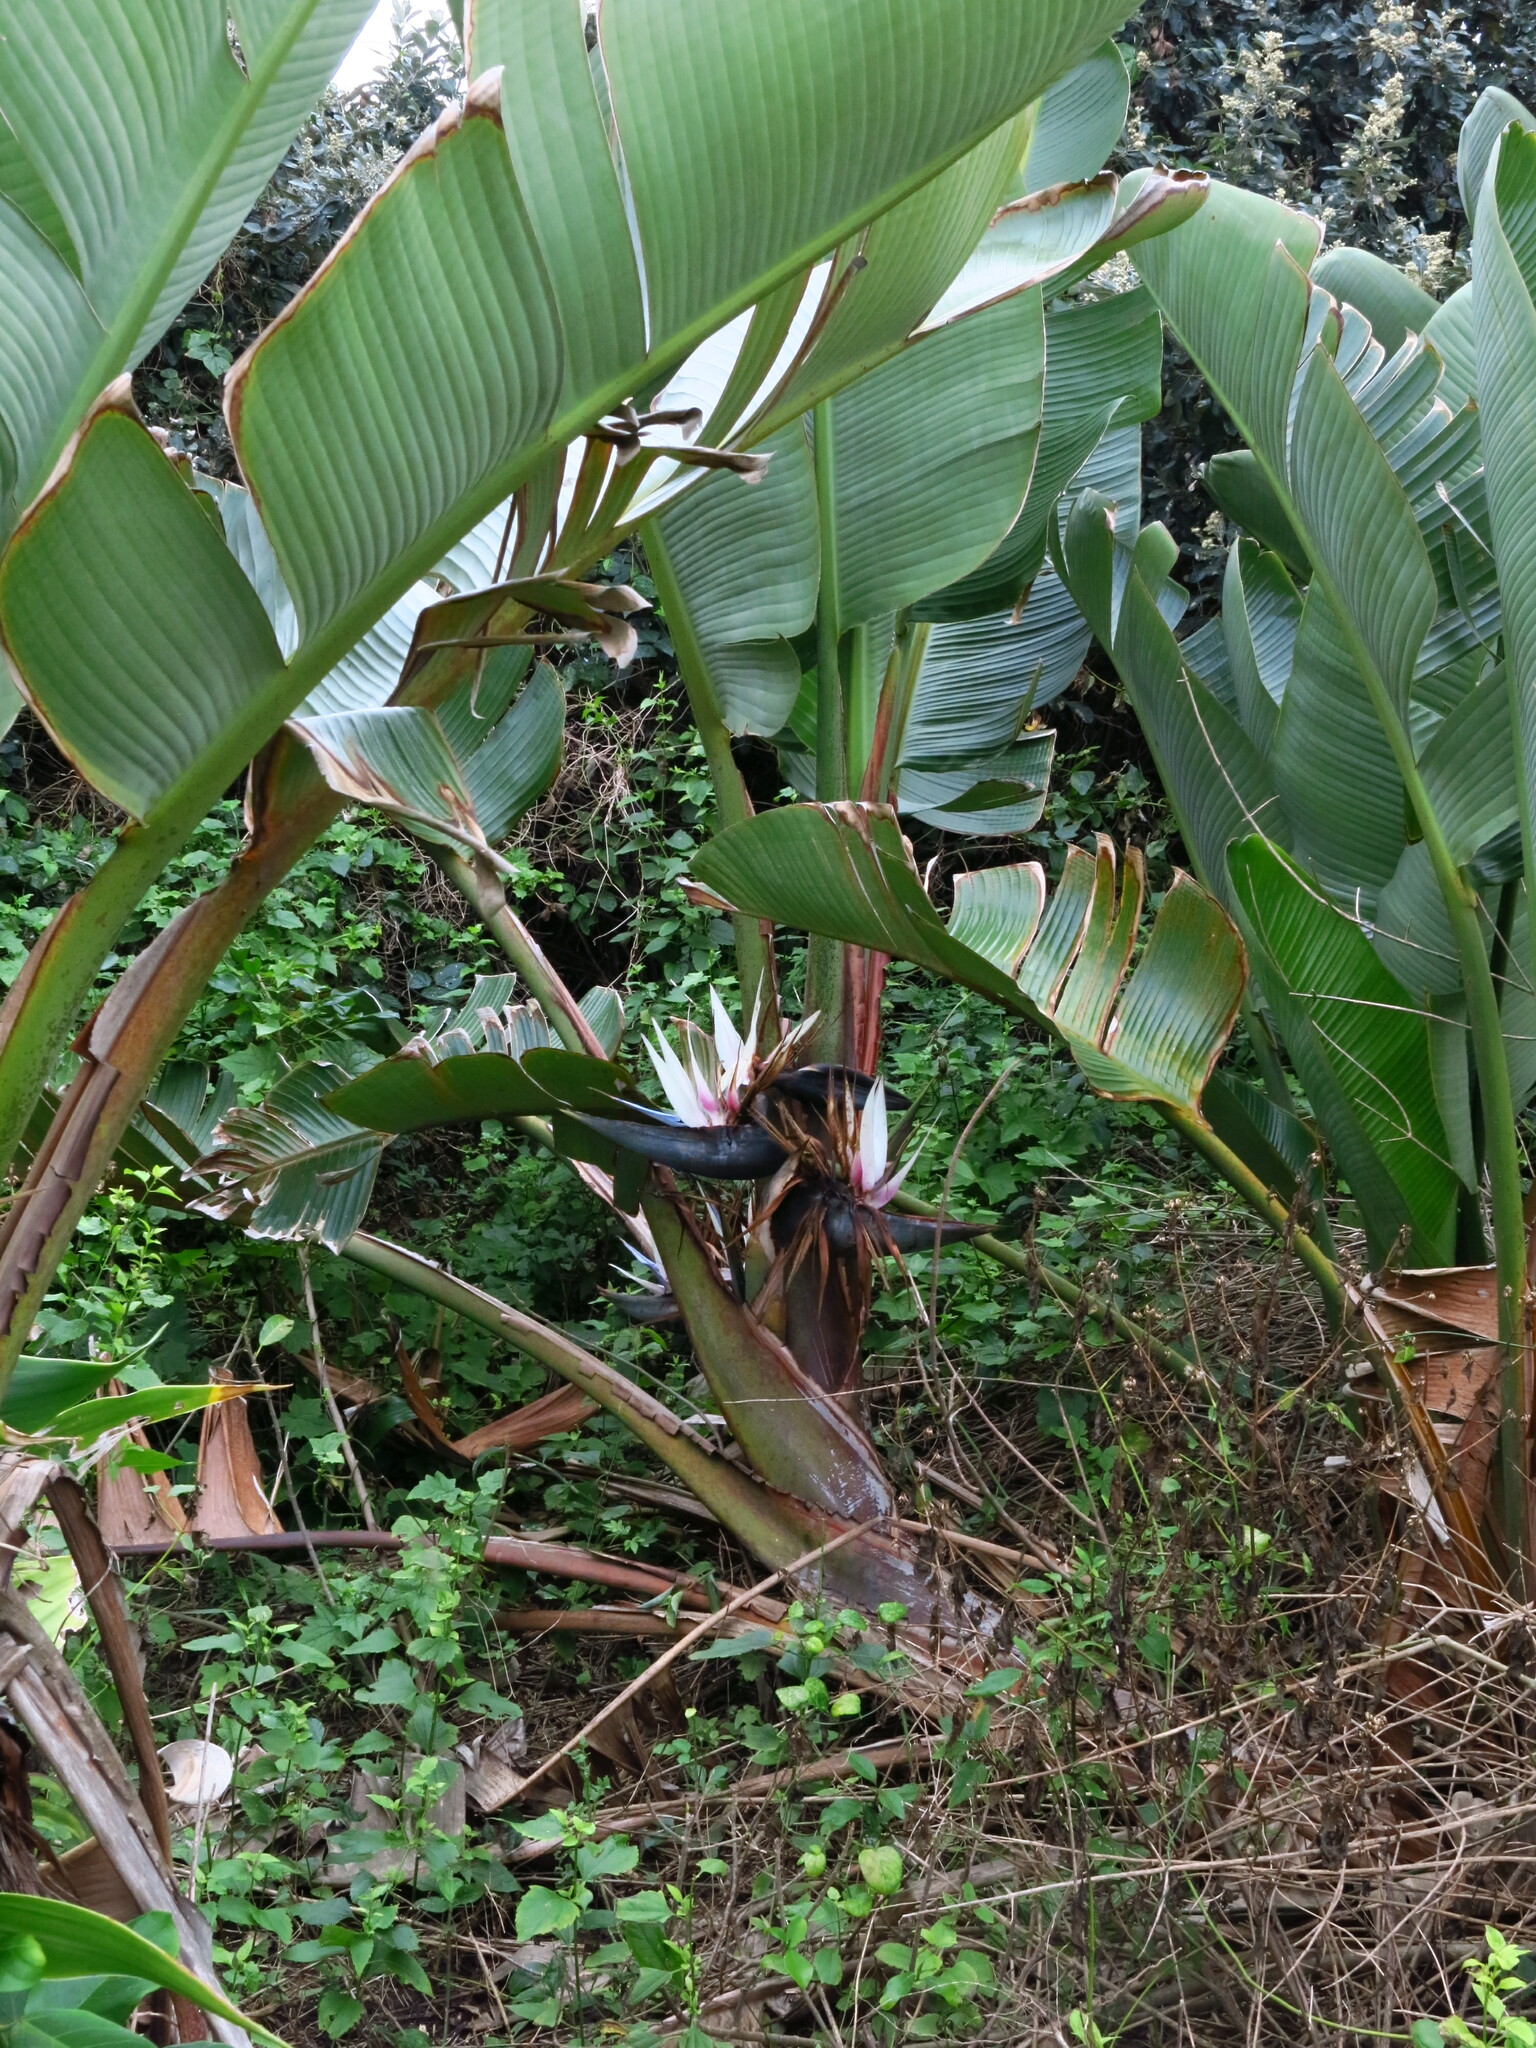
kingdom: Plantae
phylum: Tracheophyta
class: Liliopsida
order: Zingiberales
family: Strelitziaceae
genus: Strelitzia
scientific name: Strelitzia nicolai
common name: Bird-of-paradise tree
